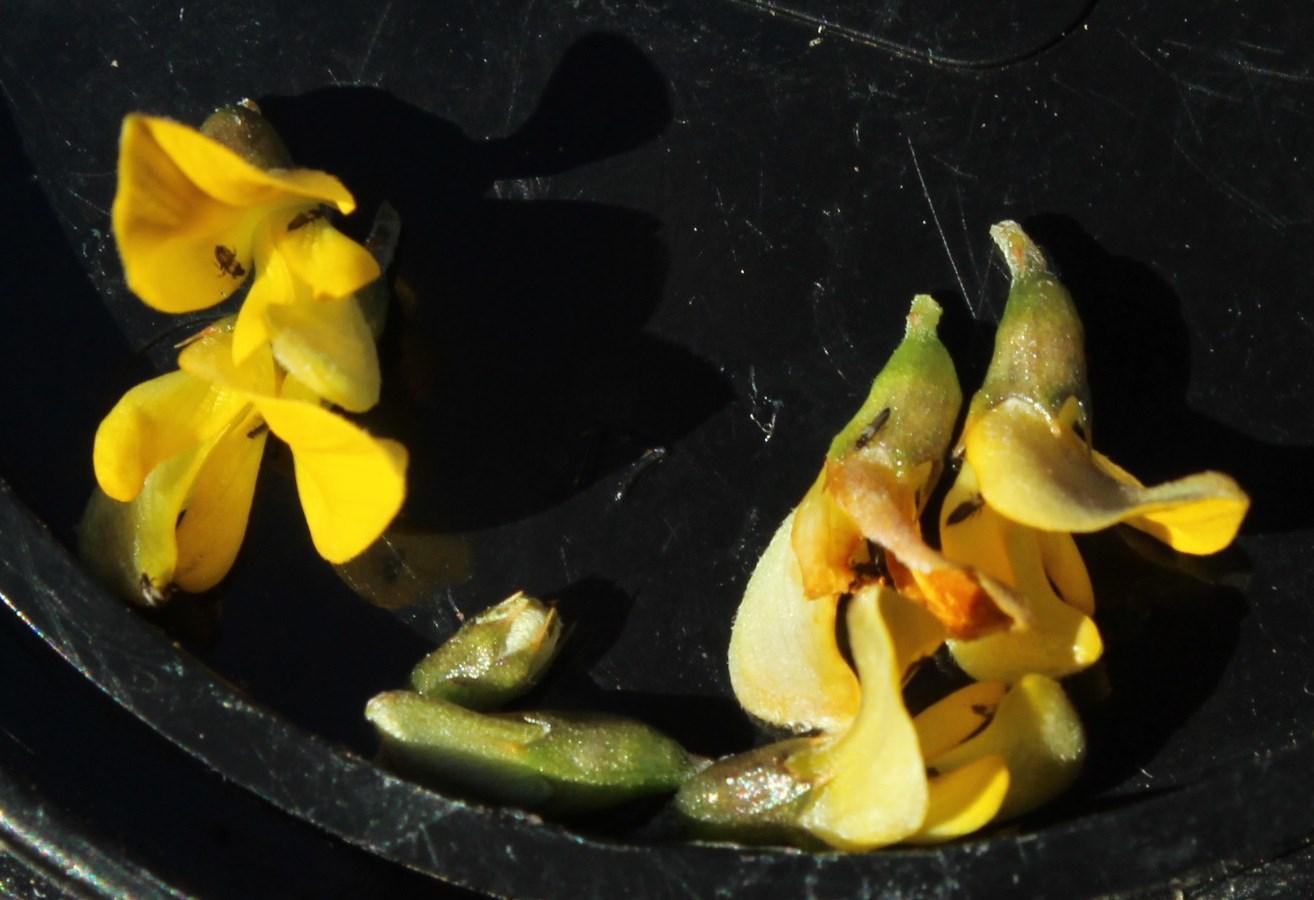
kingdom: Plantae
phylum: Tracheophyta
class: Magnoliopsida
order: Fabales
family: Fabaceae
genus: Aspalathus
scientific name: Aspalathus vulnerans
